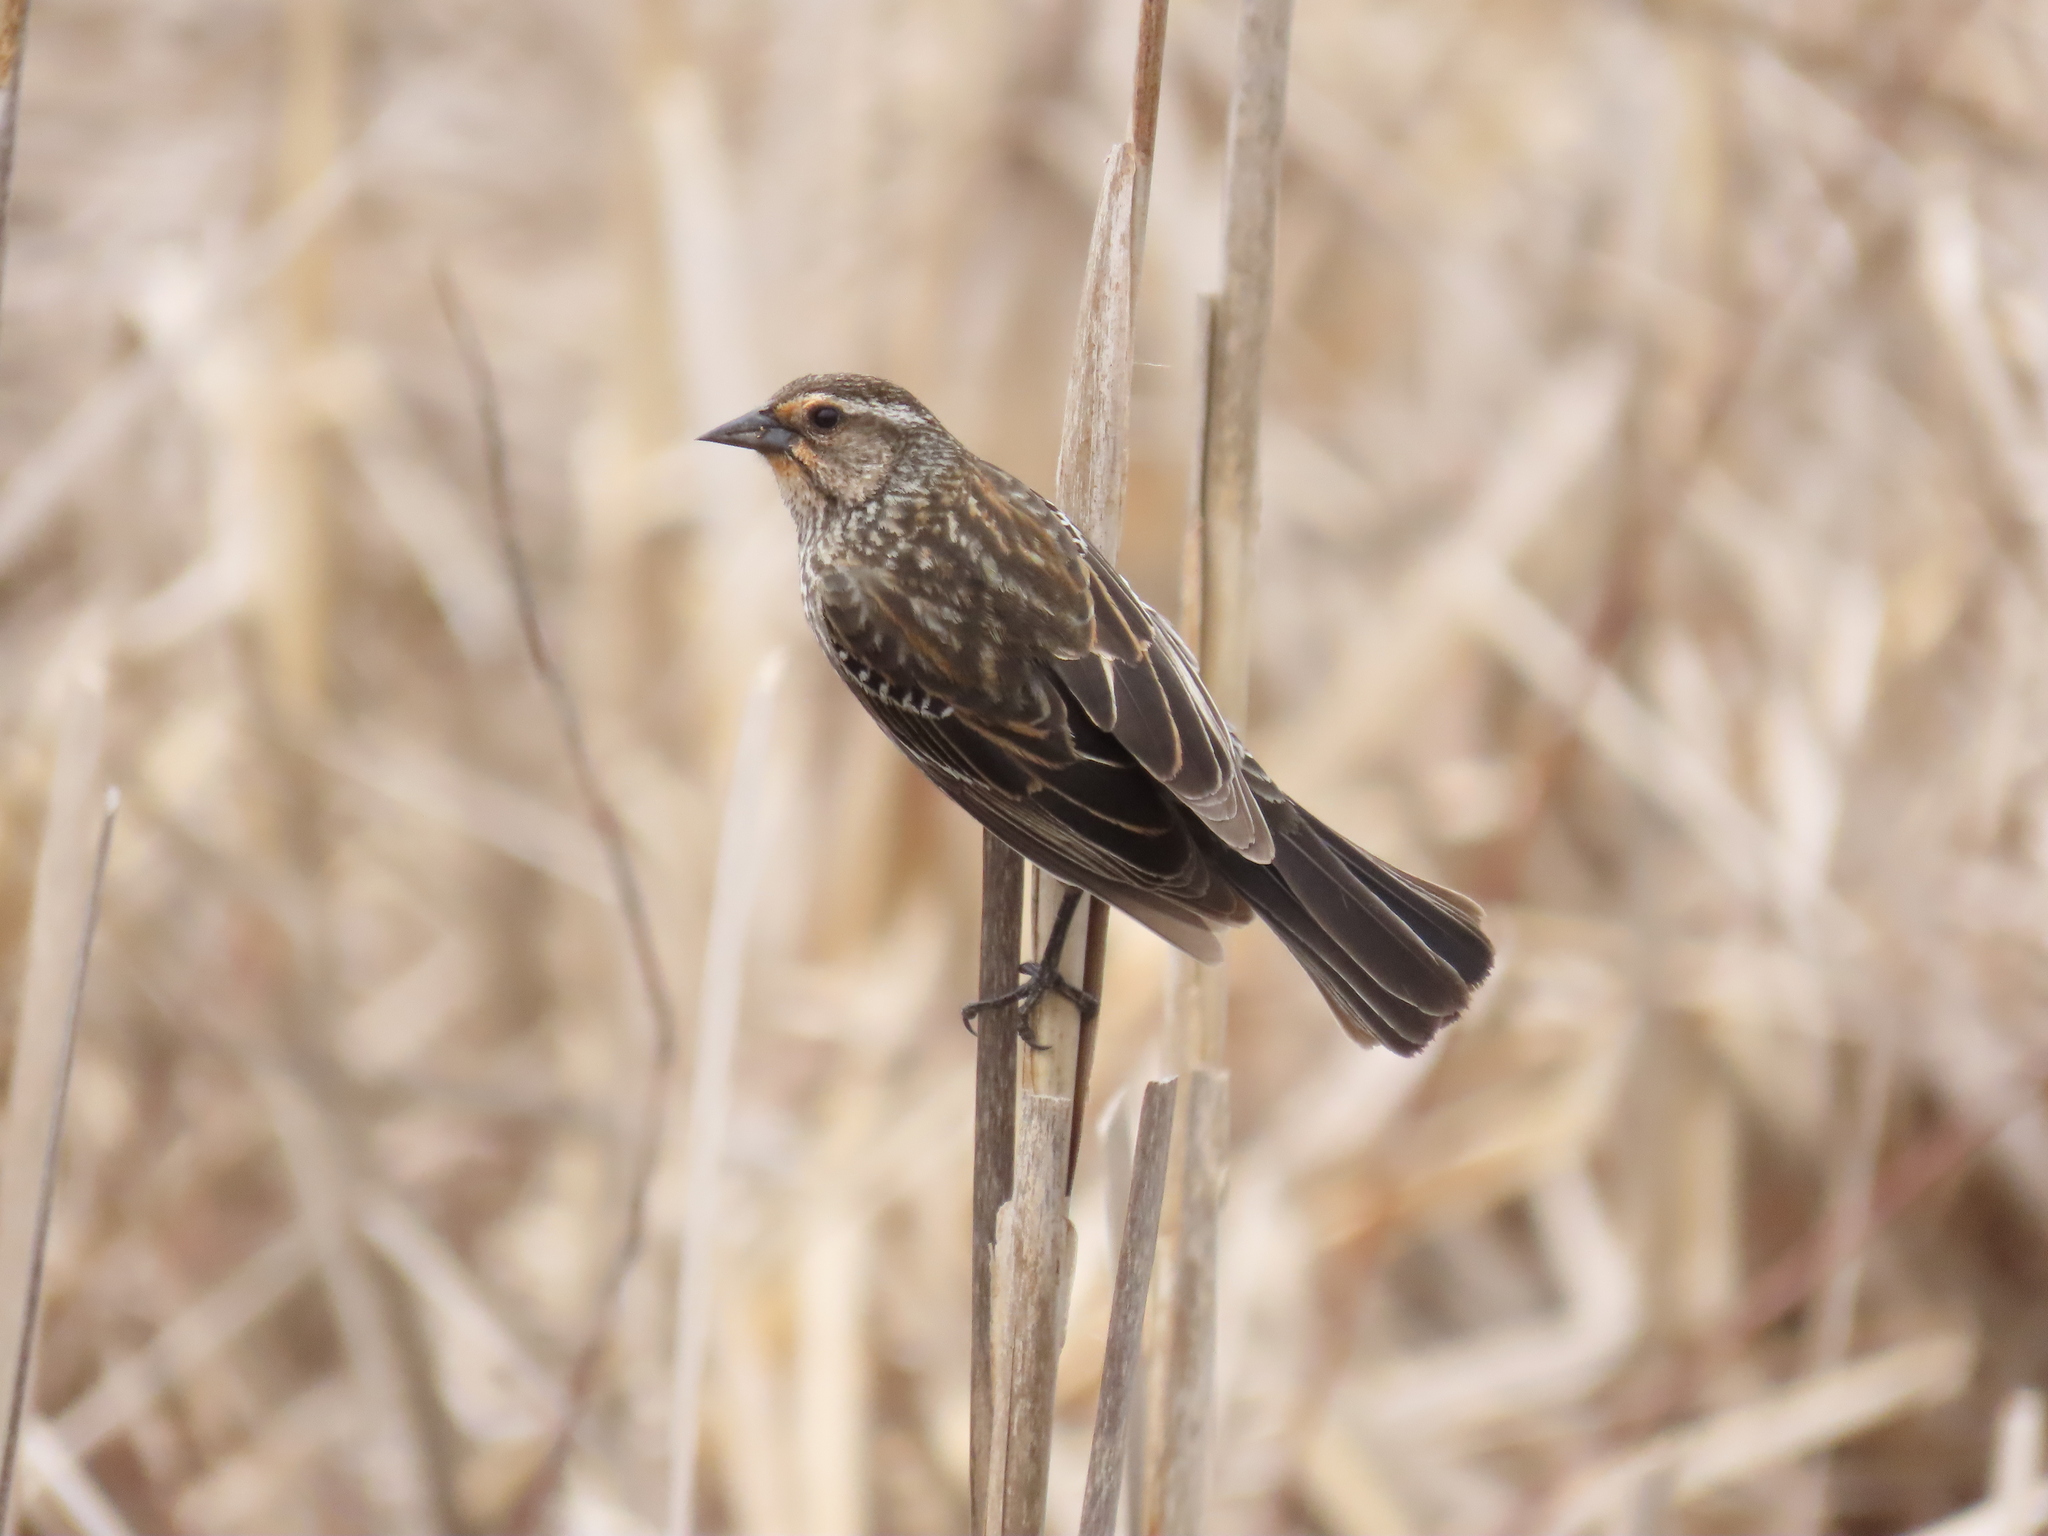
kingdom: Animalia
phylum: Chordata
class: Aves
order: Passeriformes
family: Icteridae
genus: Agelaius
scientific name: Agelaius phoeniceus
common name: Red-winged blackbird
